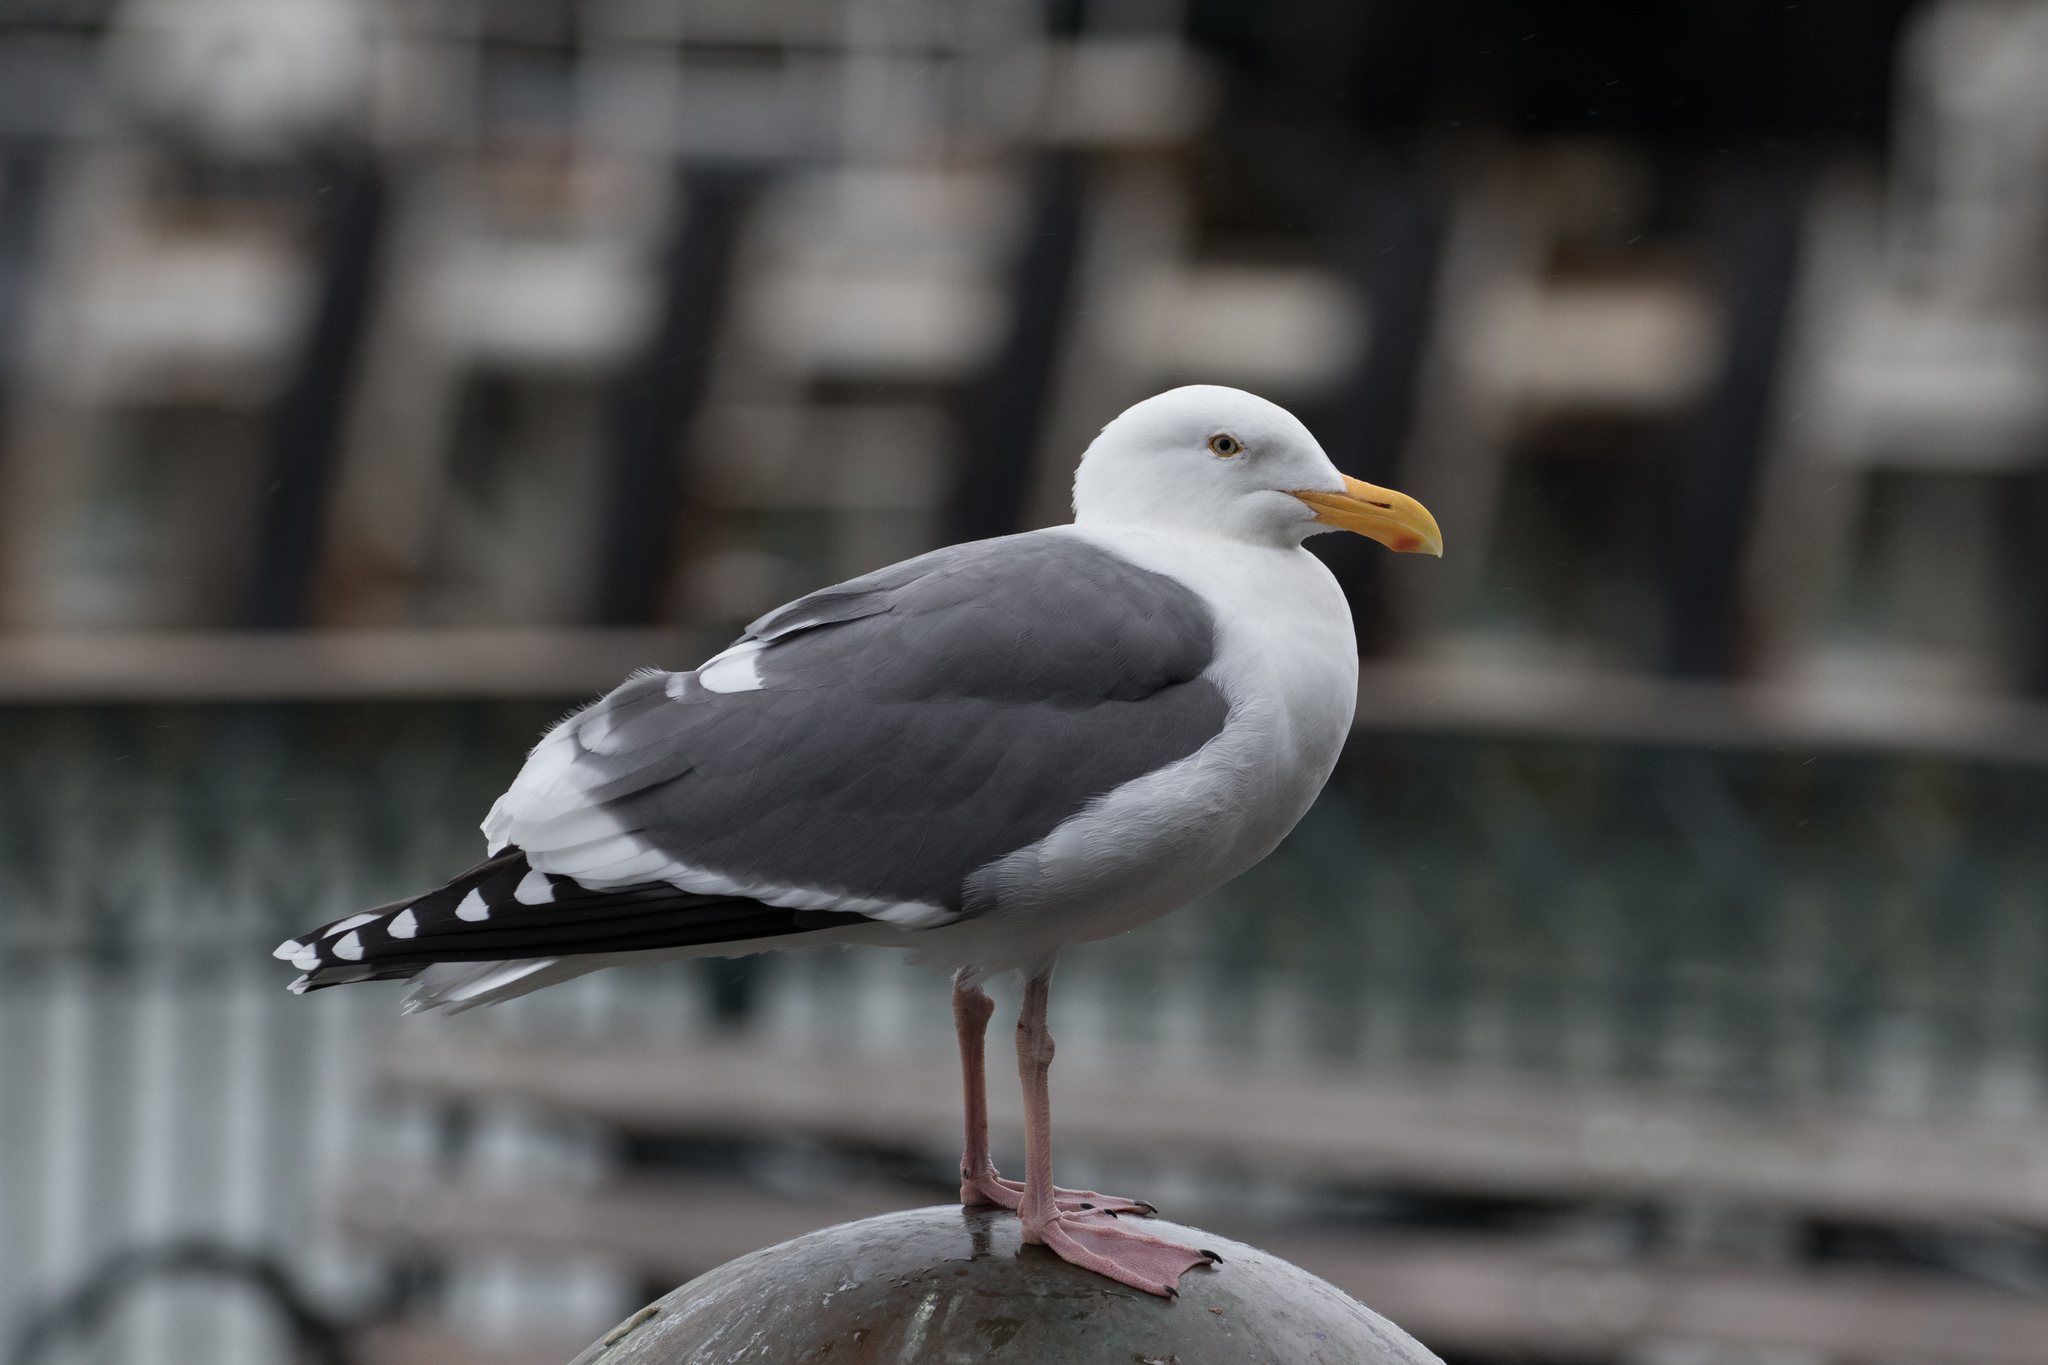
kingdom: Animalia
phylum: Chordata
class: Aves
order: Charadriiformes
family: Laridae
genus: Larus
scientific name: Larus occidentalis
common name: Western gull
